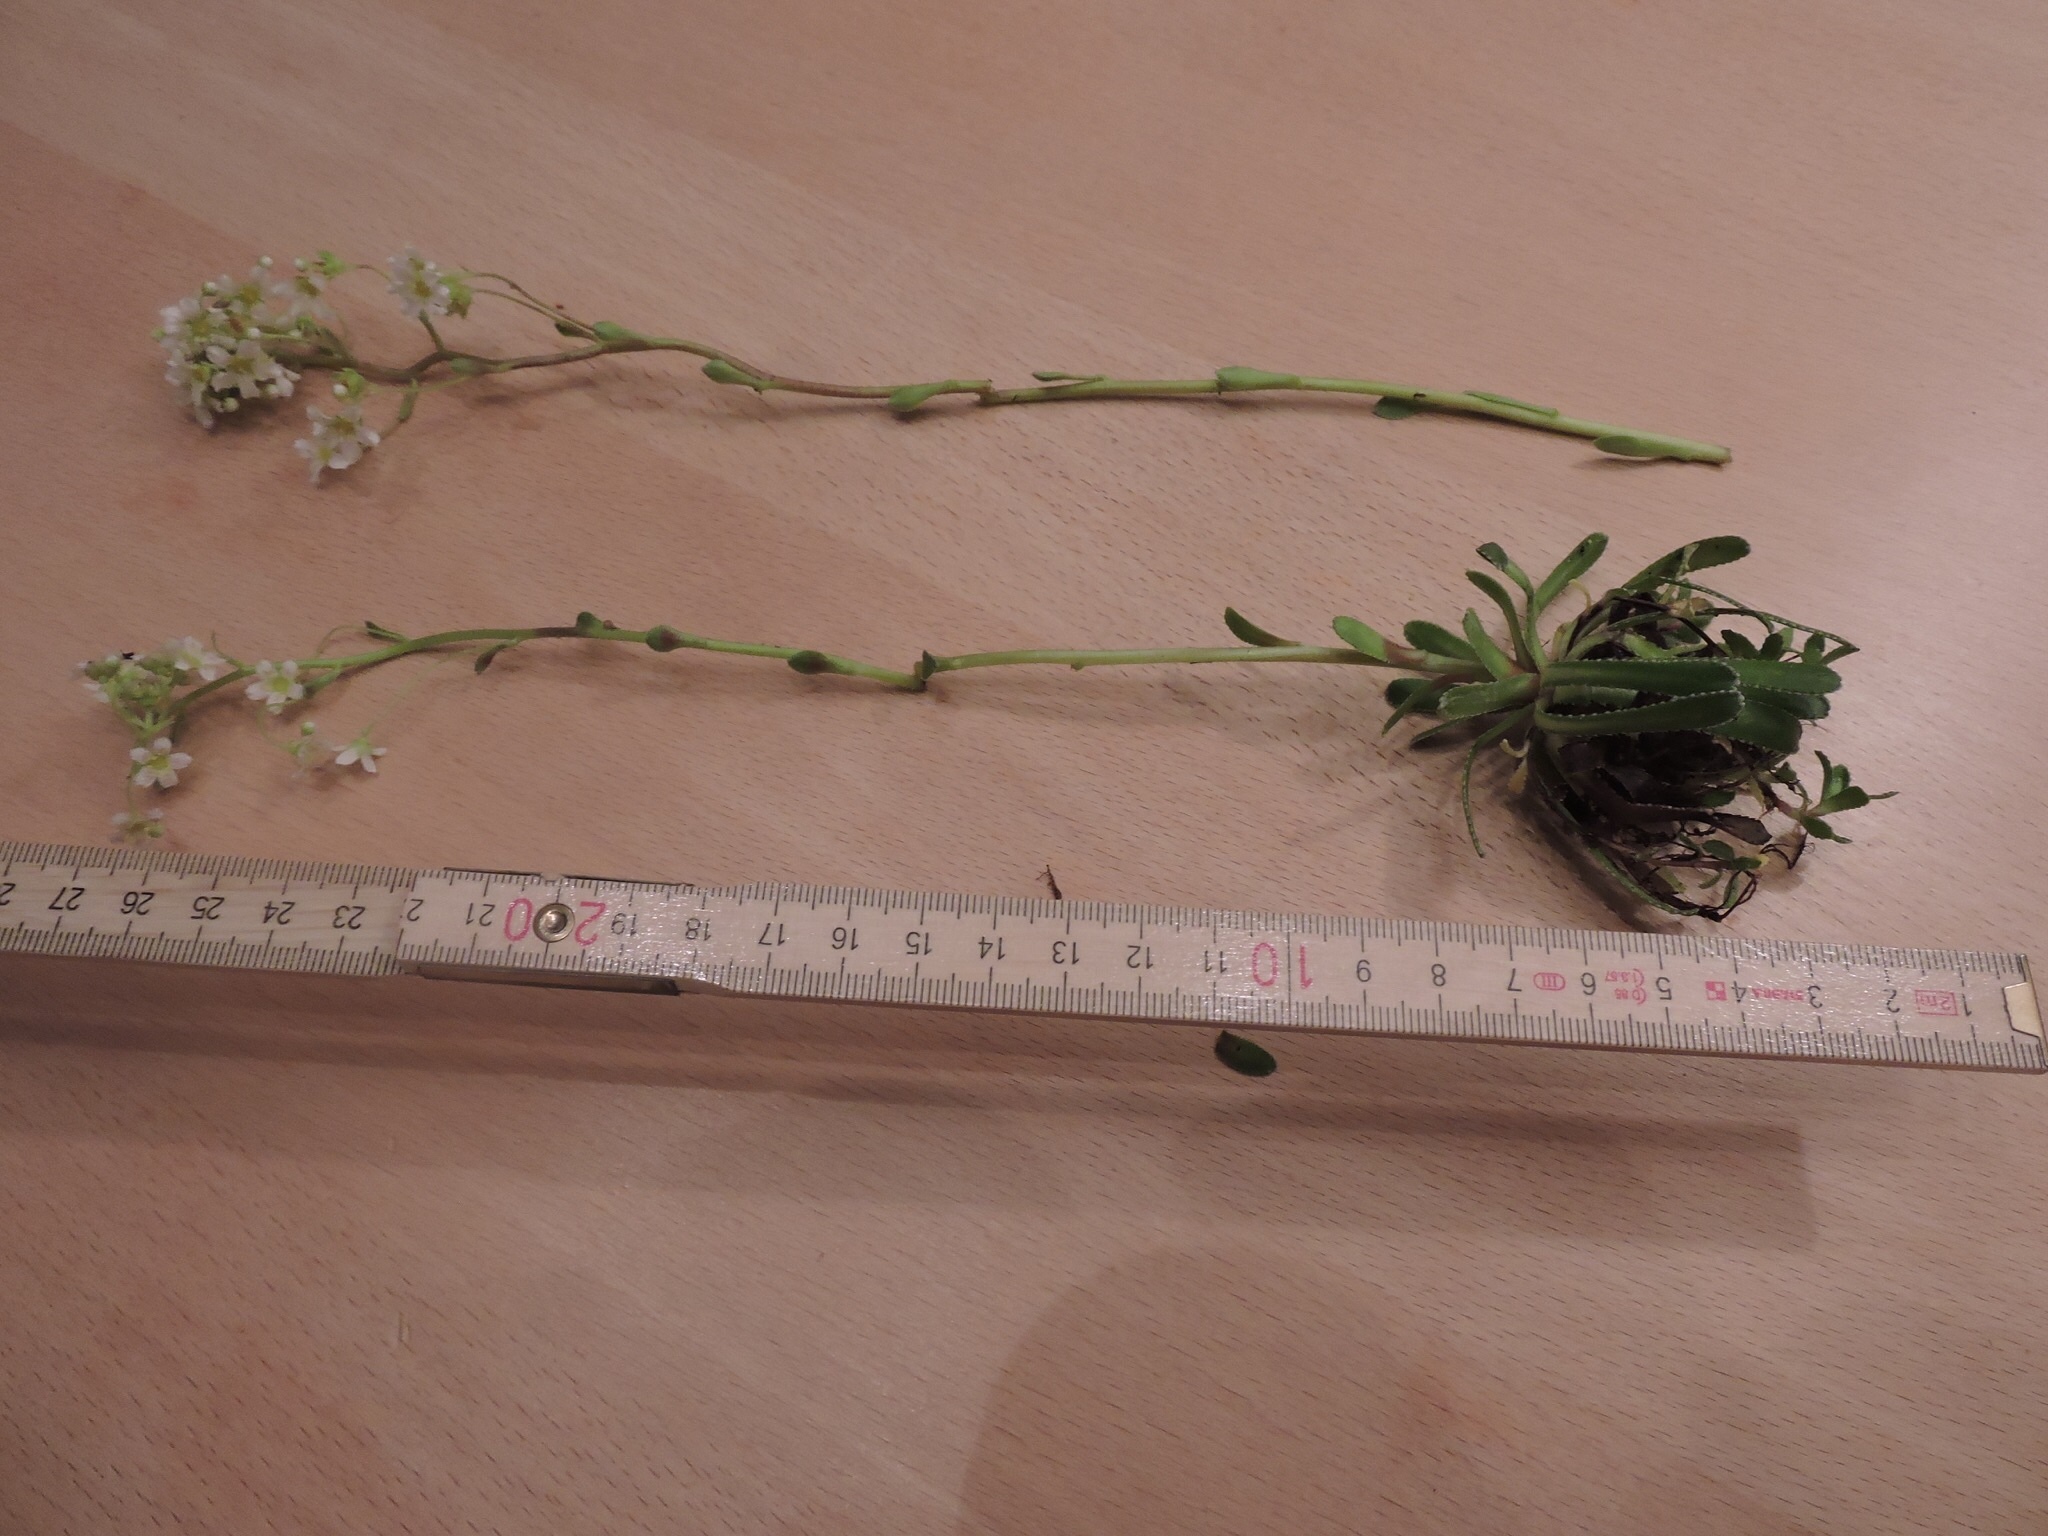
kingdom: Plantae
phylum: Tracheophyta
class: Magnoliopsida
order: Saxifragales
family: Saxifragaceae
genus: Saxifraga
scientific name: Saxifraga hostii
